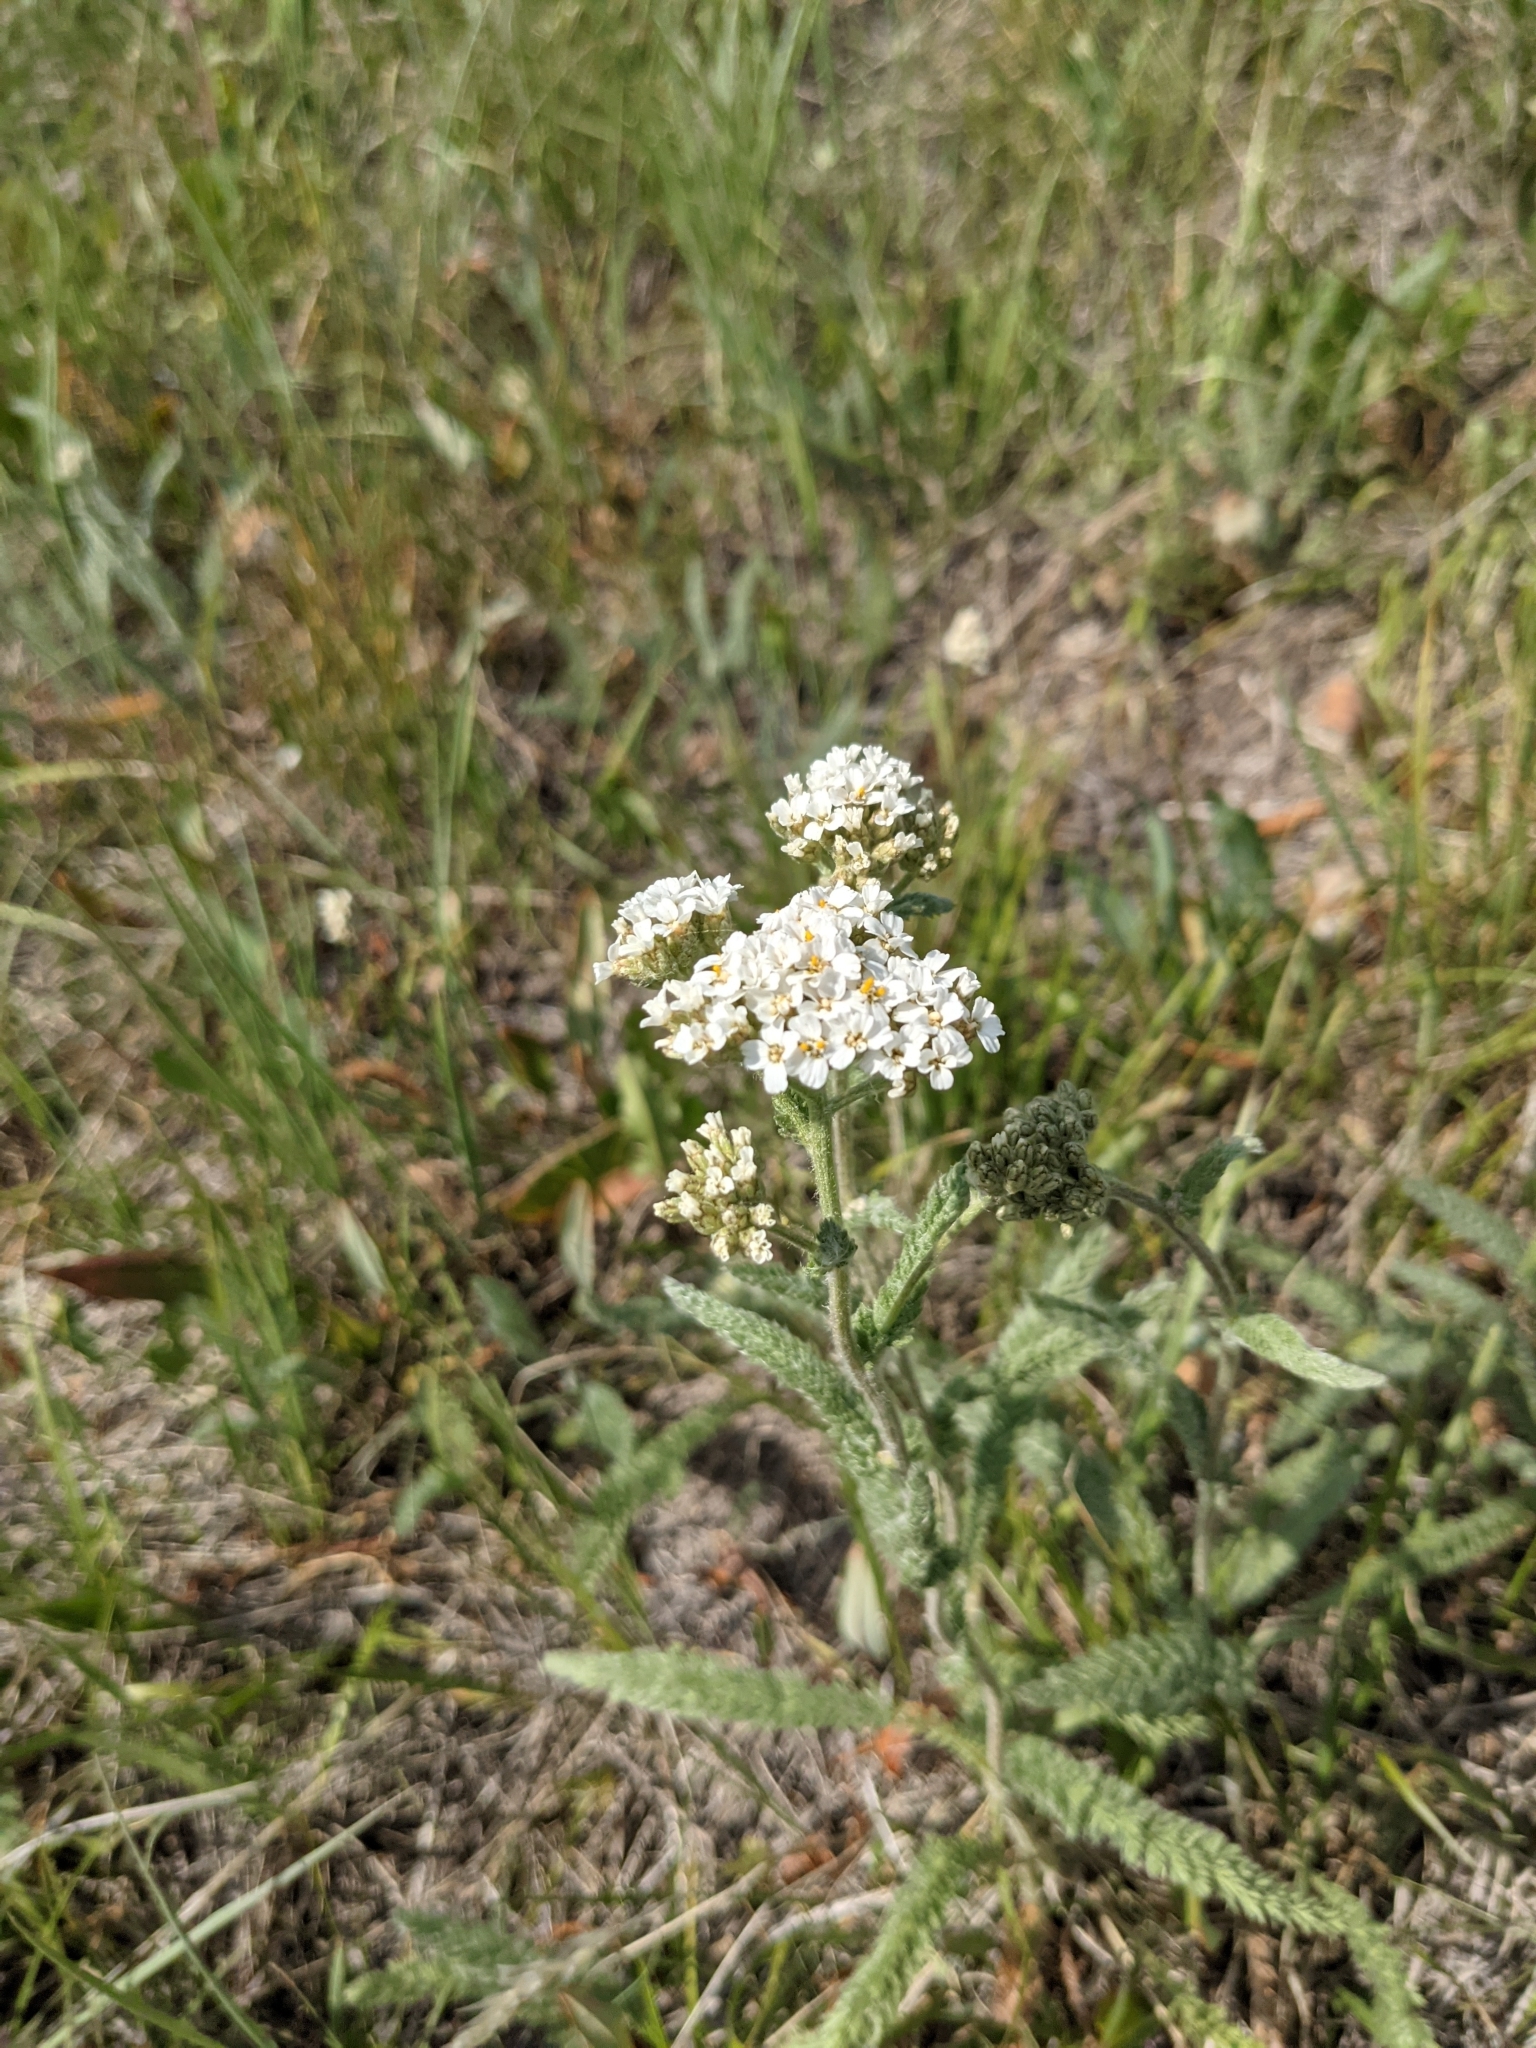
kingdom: Plantae
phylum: Tracheophyta
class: Magnoliopsida
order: Asterales
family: Asteraceae
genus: Achillea
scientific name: Achillea millefolium
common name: Yarrow
